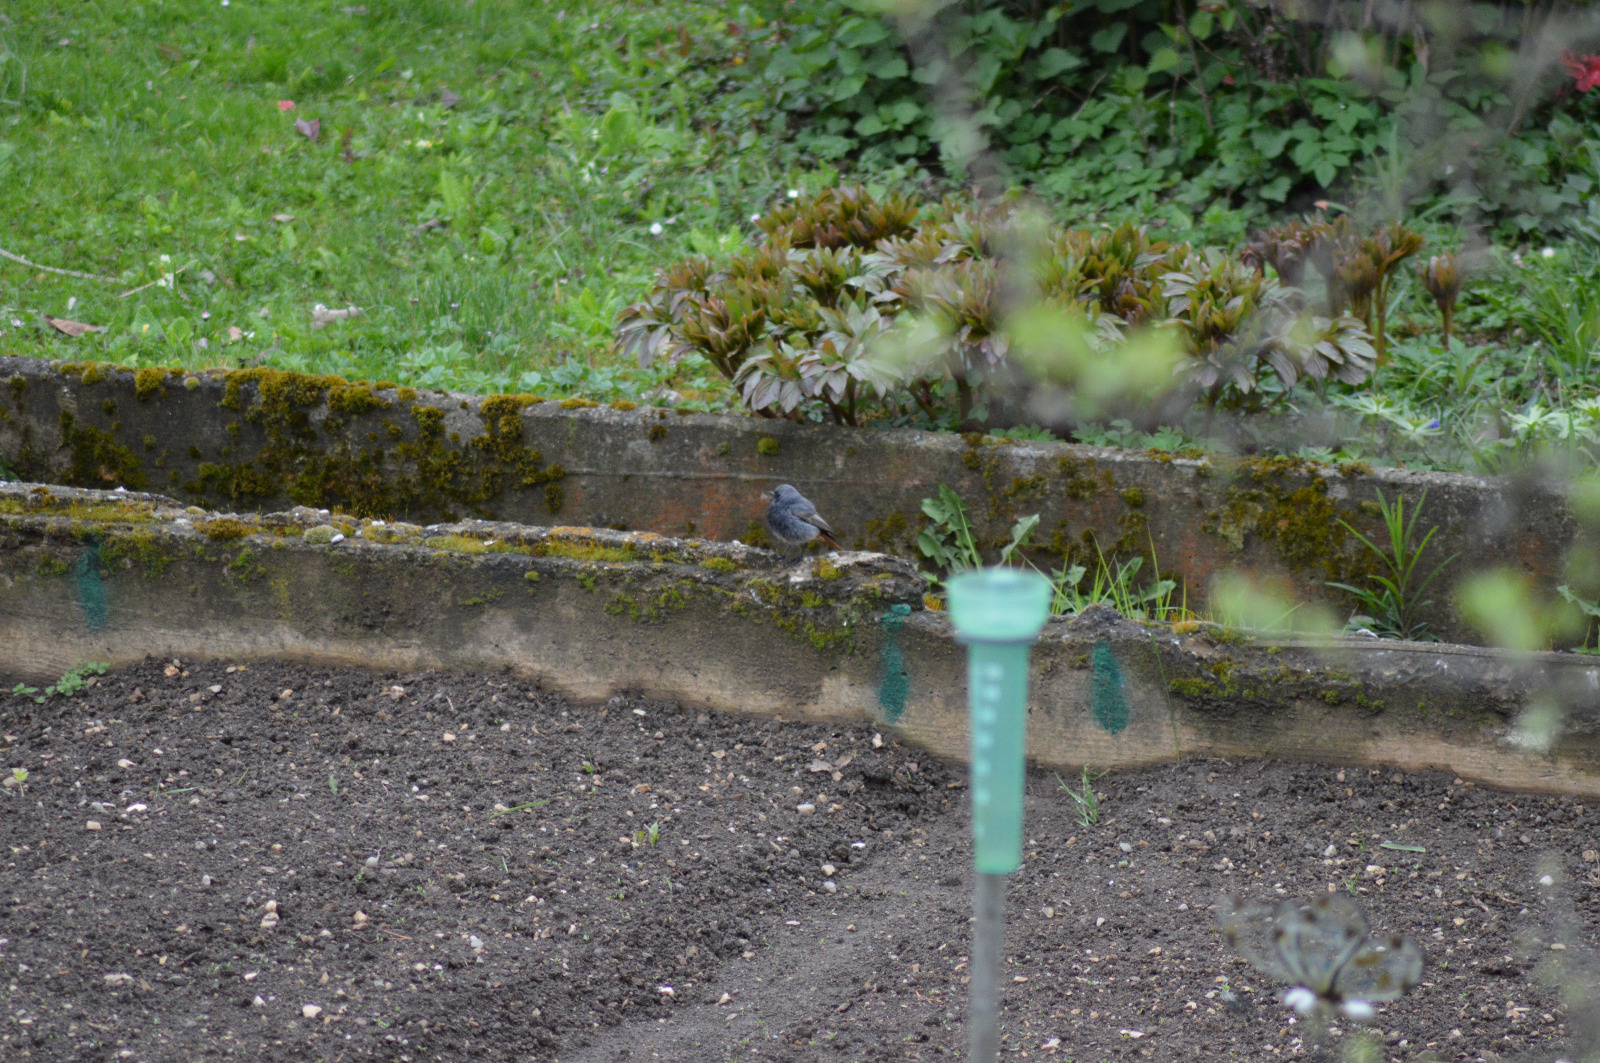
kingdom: Animalia
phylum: Chordata
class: Aves
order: Passeriformes
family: Muscicapidae
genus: Phoenicurus
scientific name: Phoenicurus ochruros
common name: Black redstart
